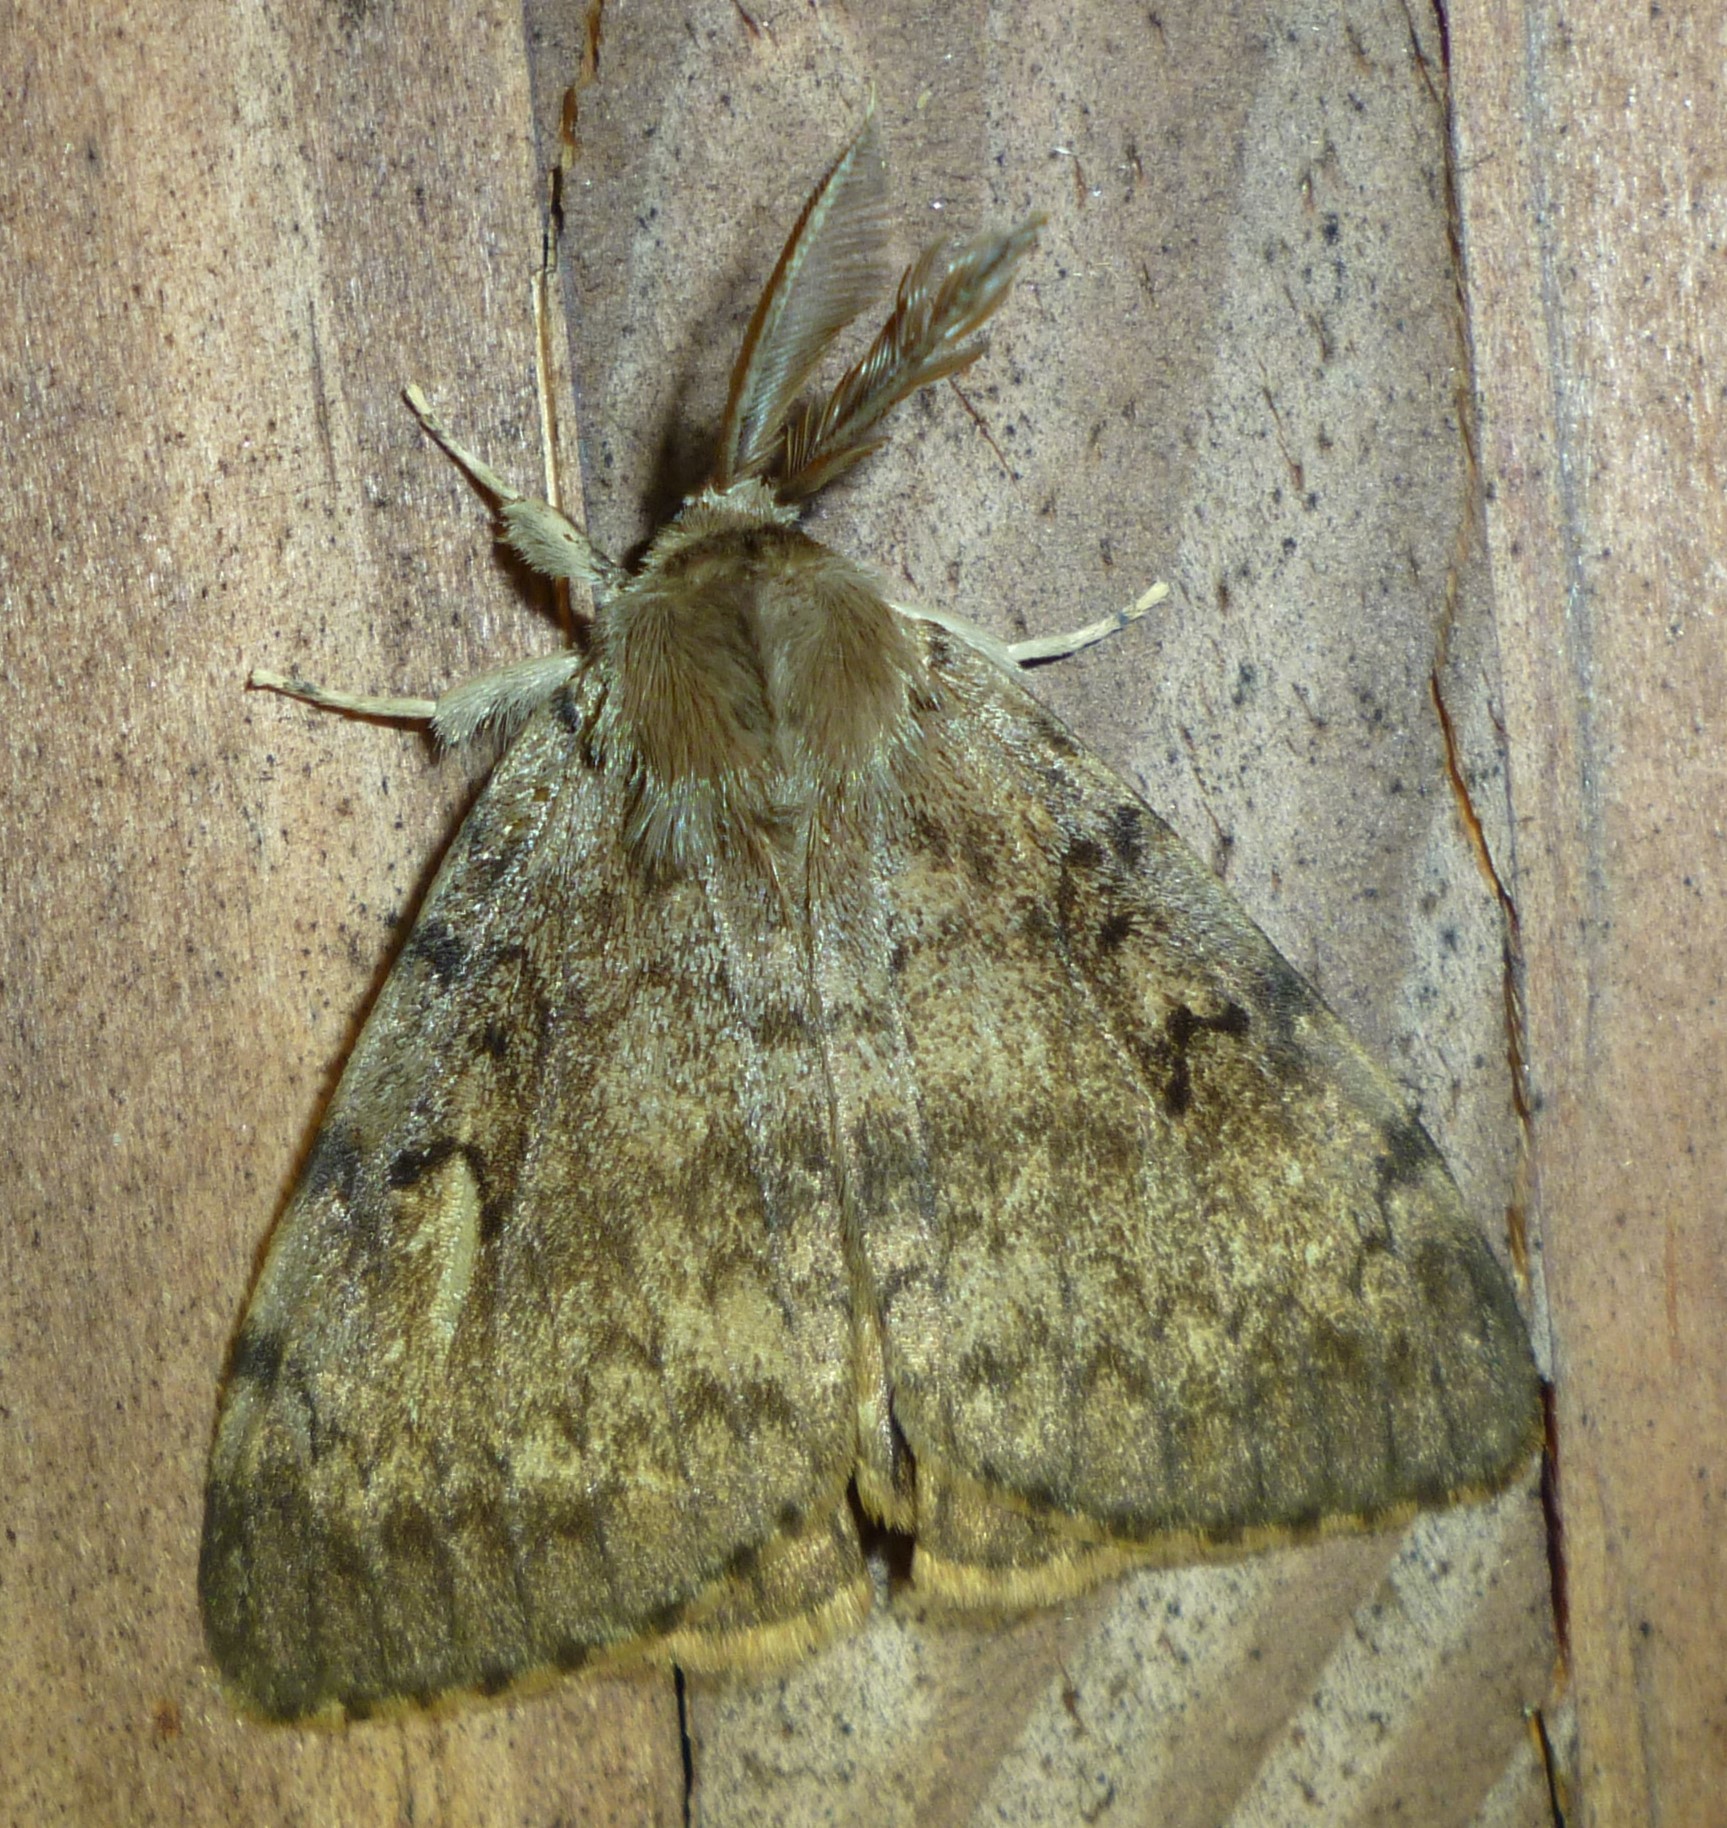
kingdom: Animalia
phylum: Arthropoda
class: Insecta
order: Lepidoptera
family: Erebidae
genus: Lymantria
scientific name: Lymantria dispar
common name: Gypsy moth
